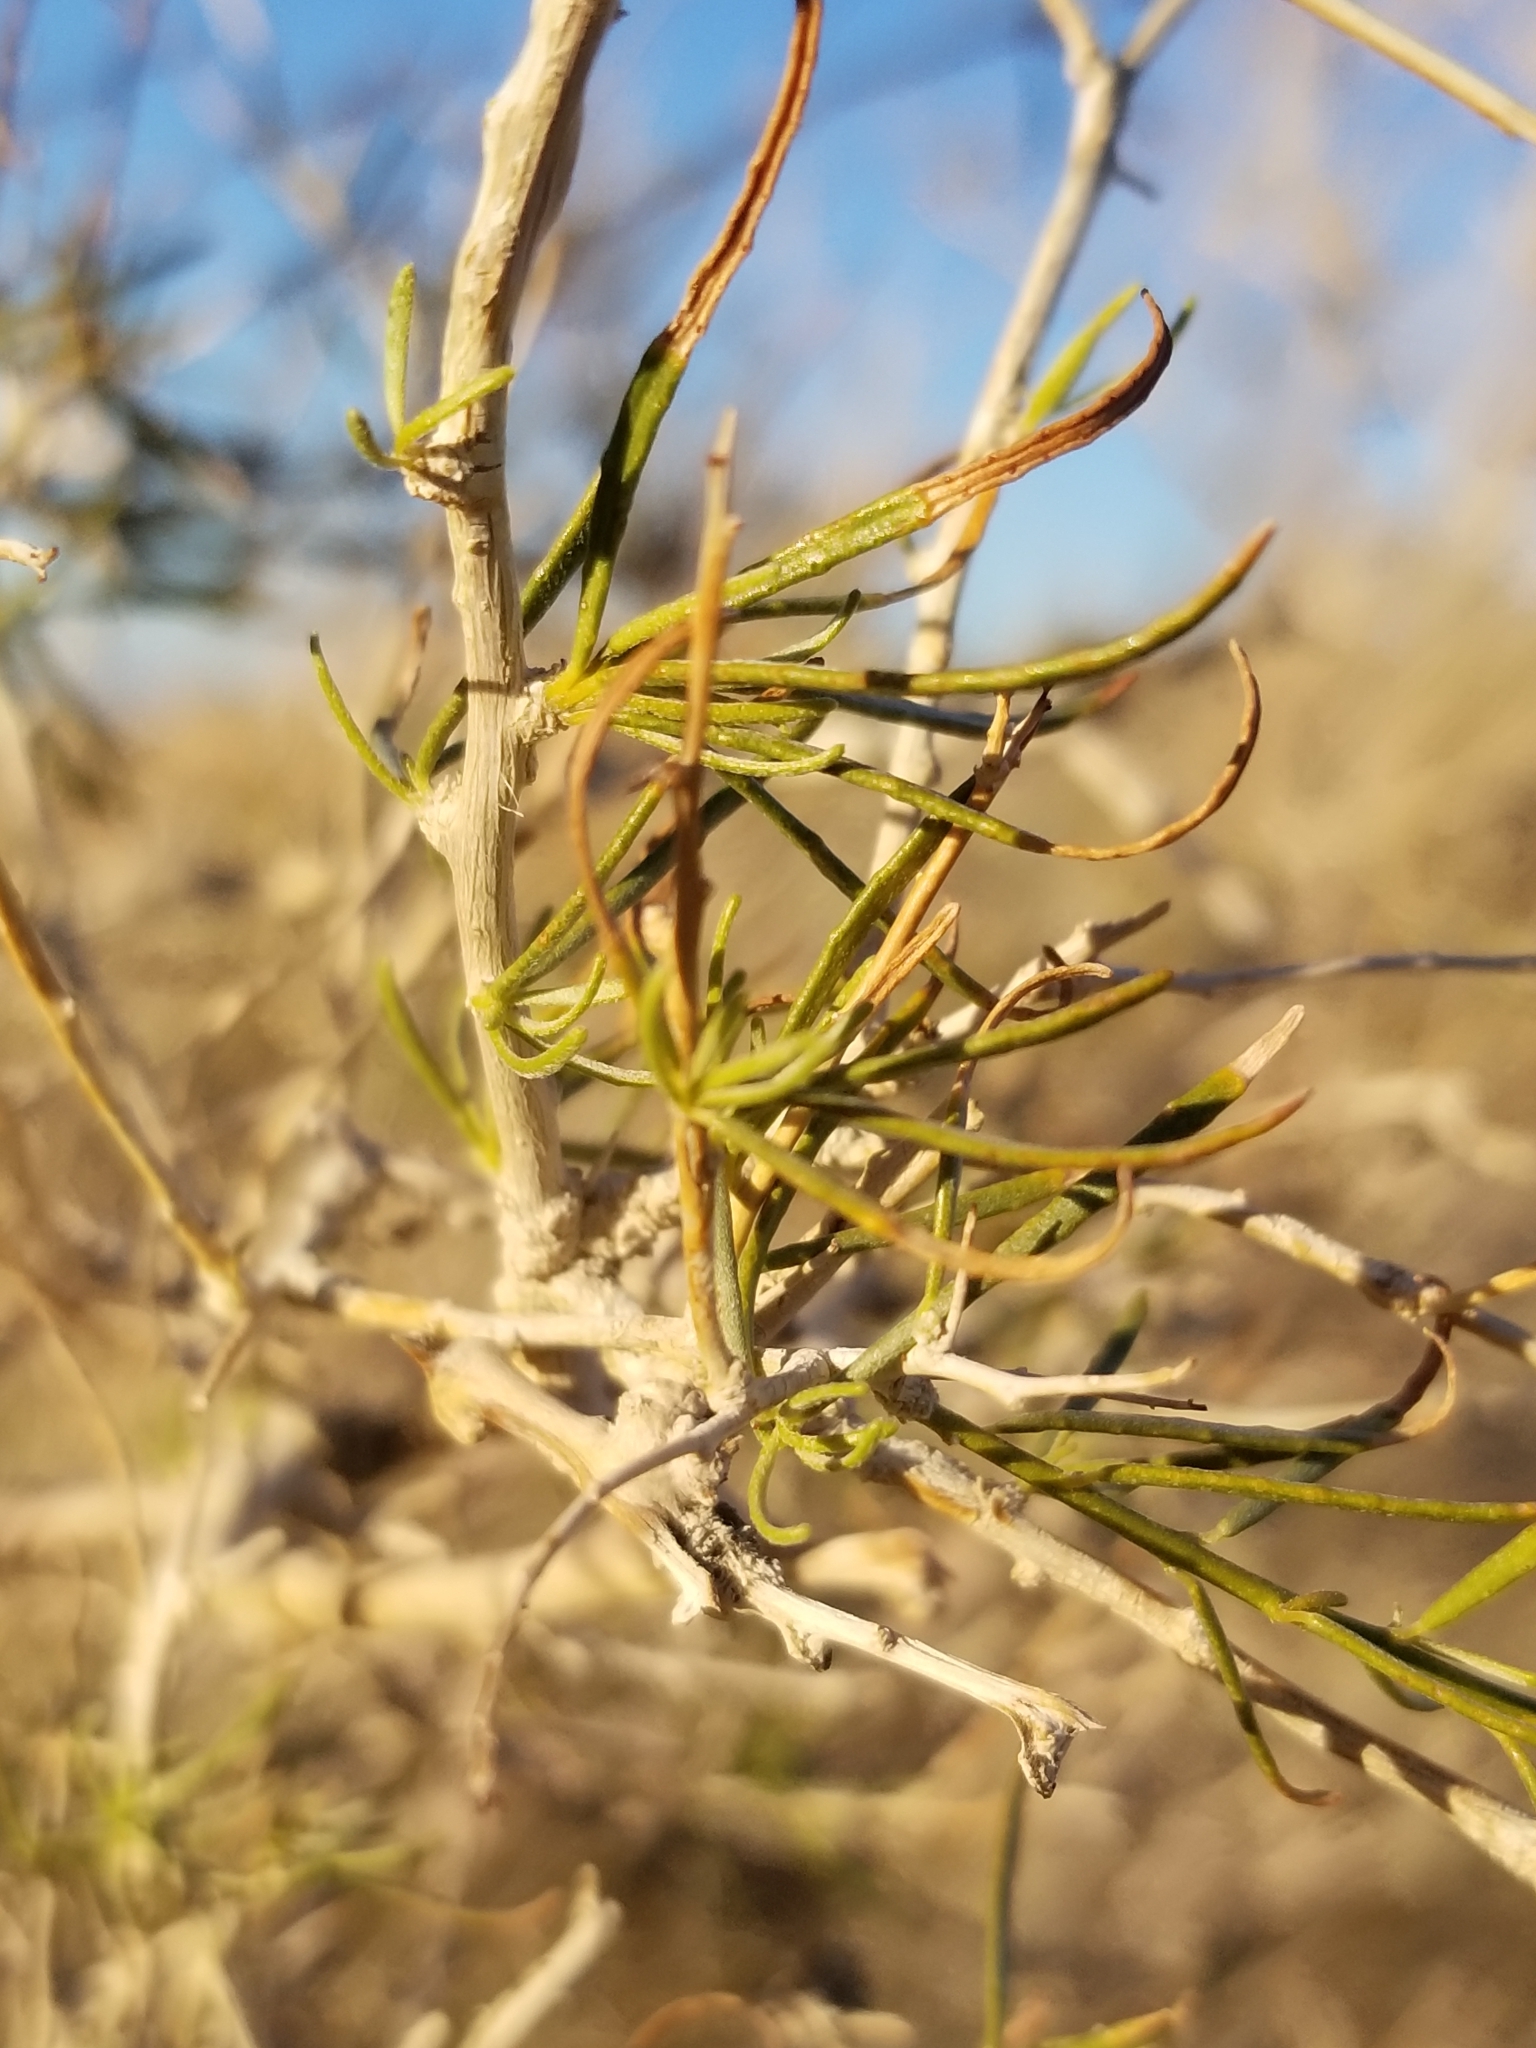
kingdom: Plantae
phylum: Tracheophyta
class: Magnoliopsida
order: Fabales
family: Fabaceae
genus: Psorothamnus
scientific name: Psorothamnus schottii
